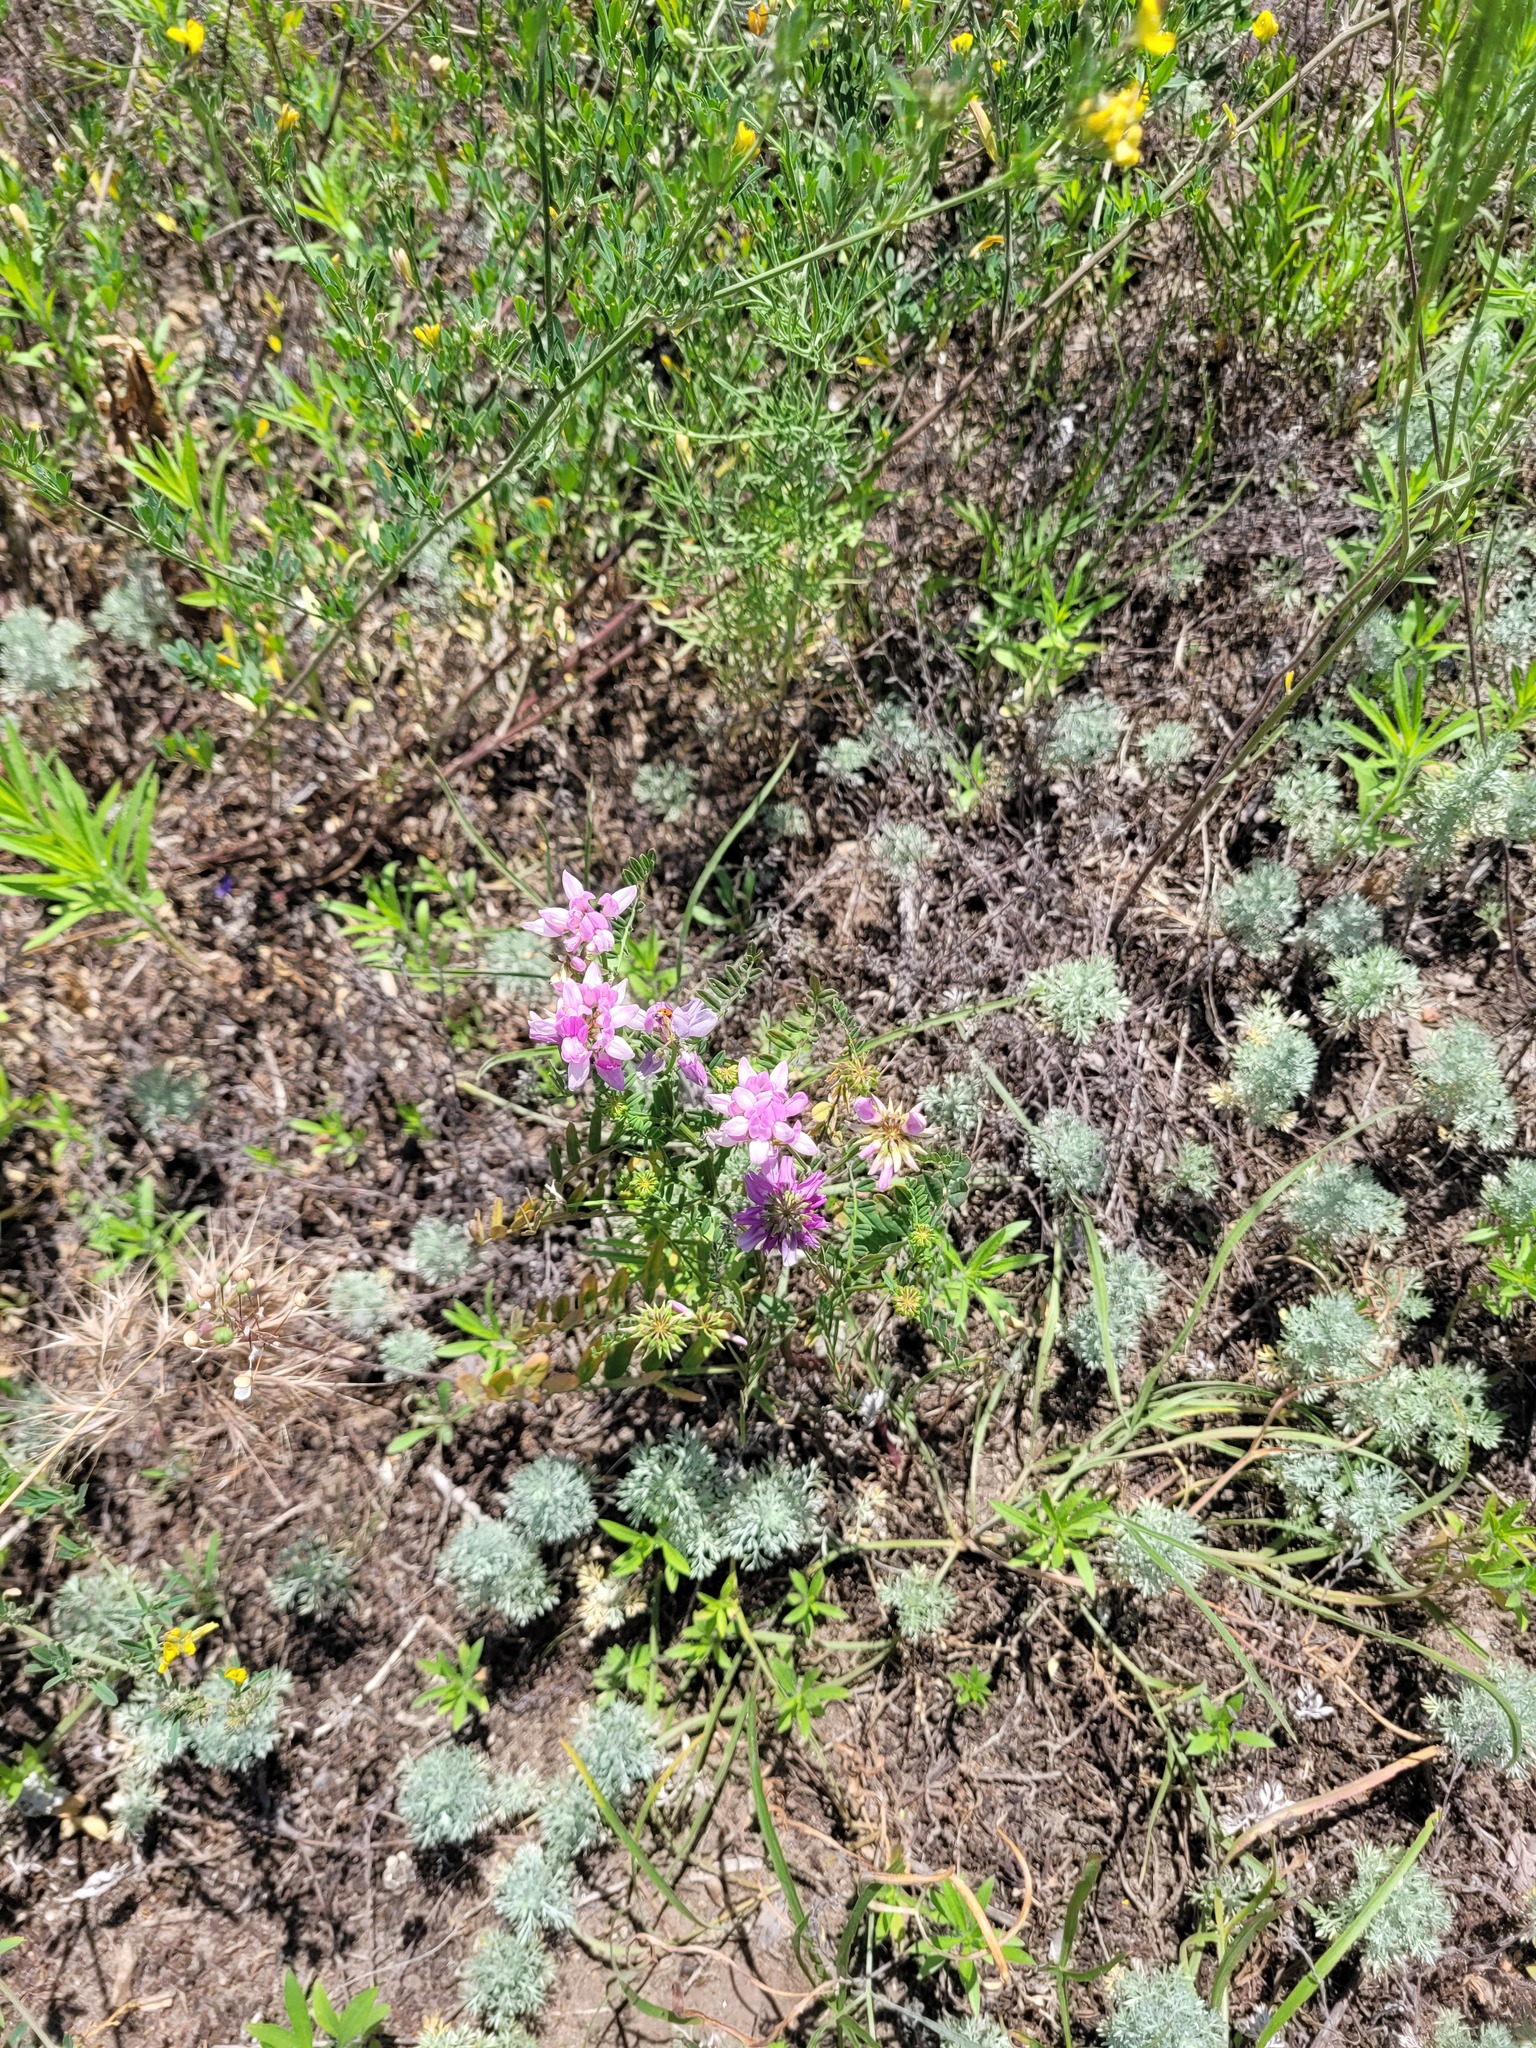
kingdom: Plantae
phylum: Tracheophyta
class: Magnoliopsida
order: Fabales
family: Fabaceae
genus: Coronilla
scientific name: Coronilla varia
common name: Crownvetch
